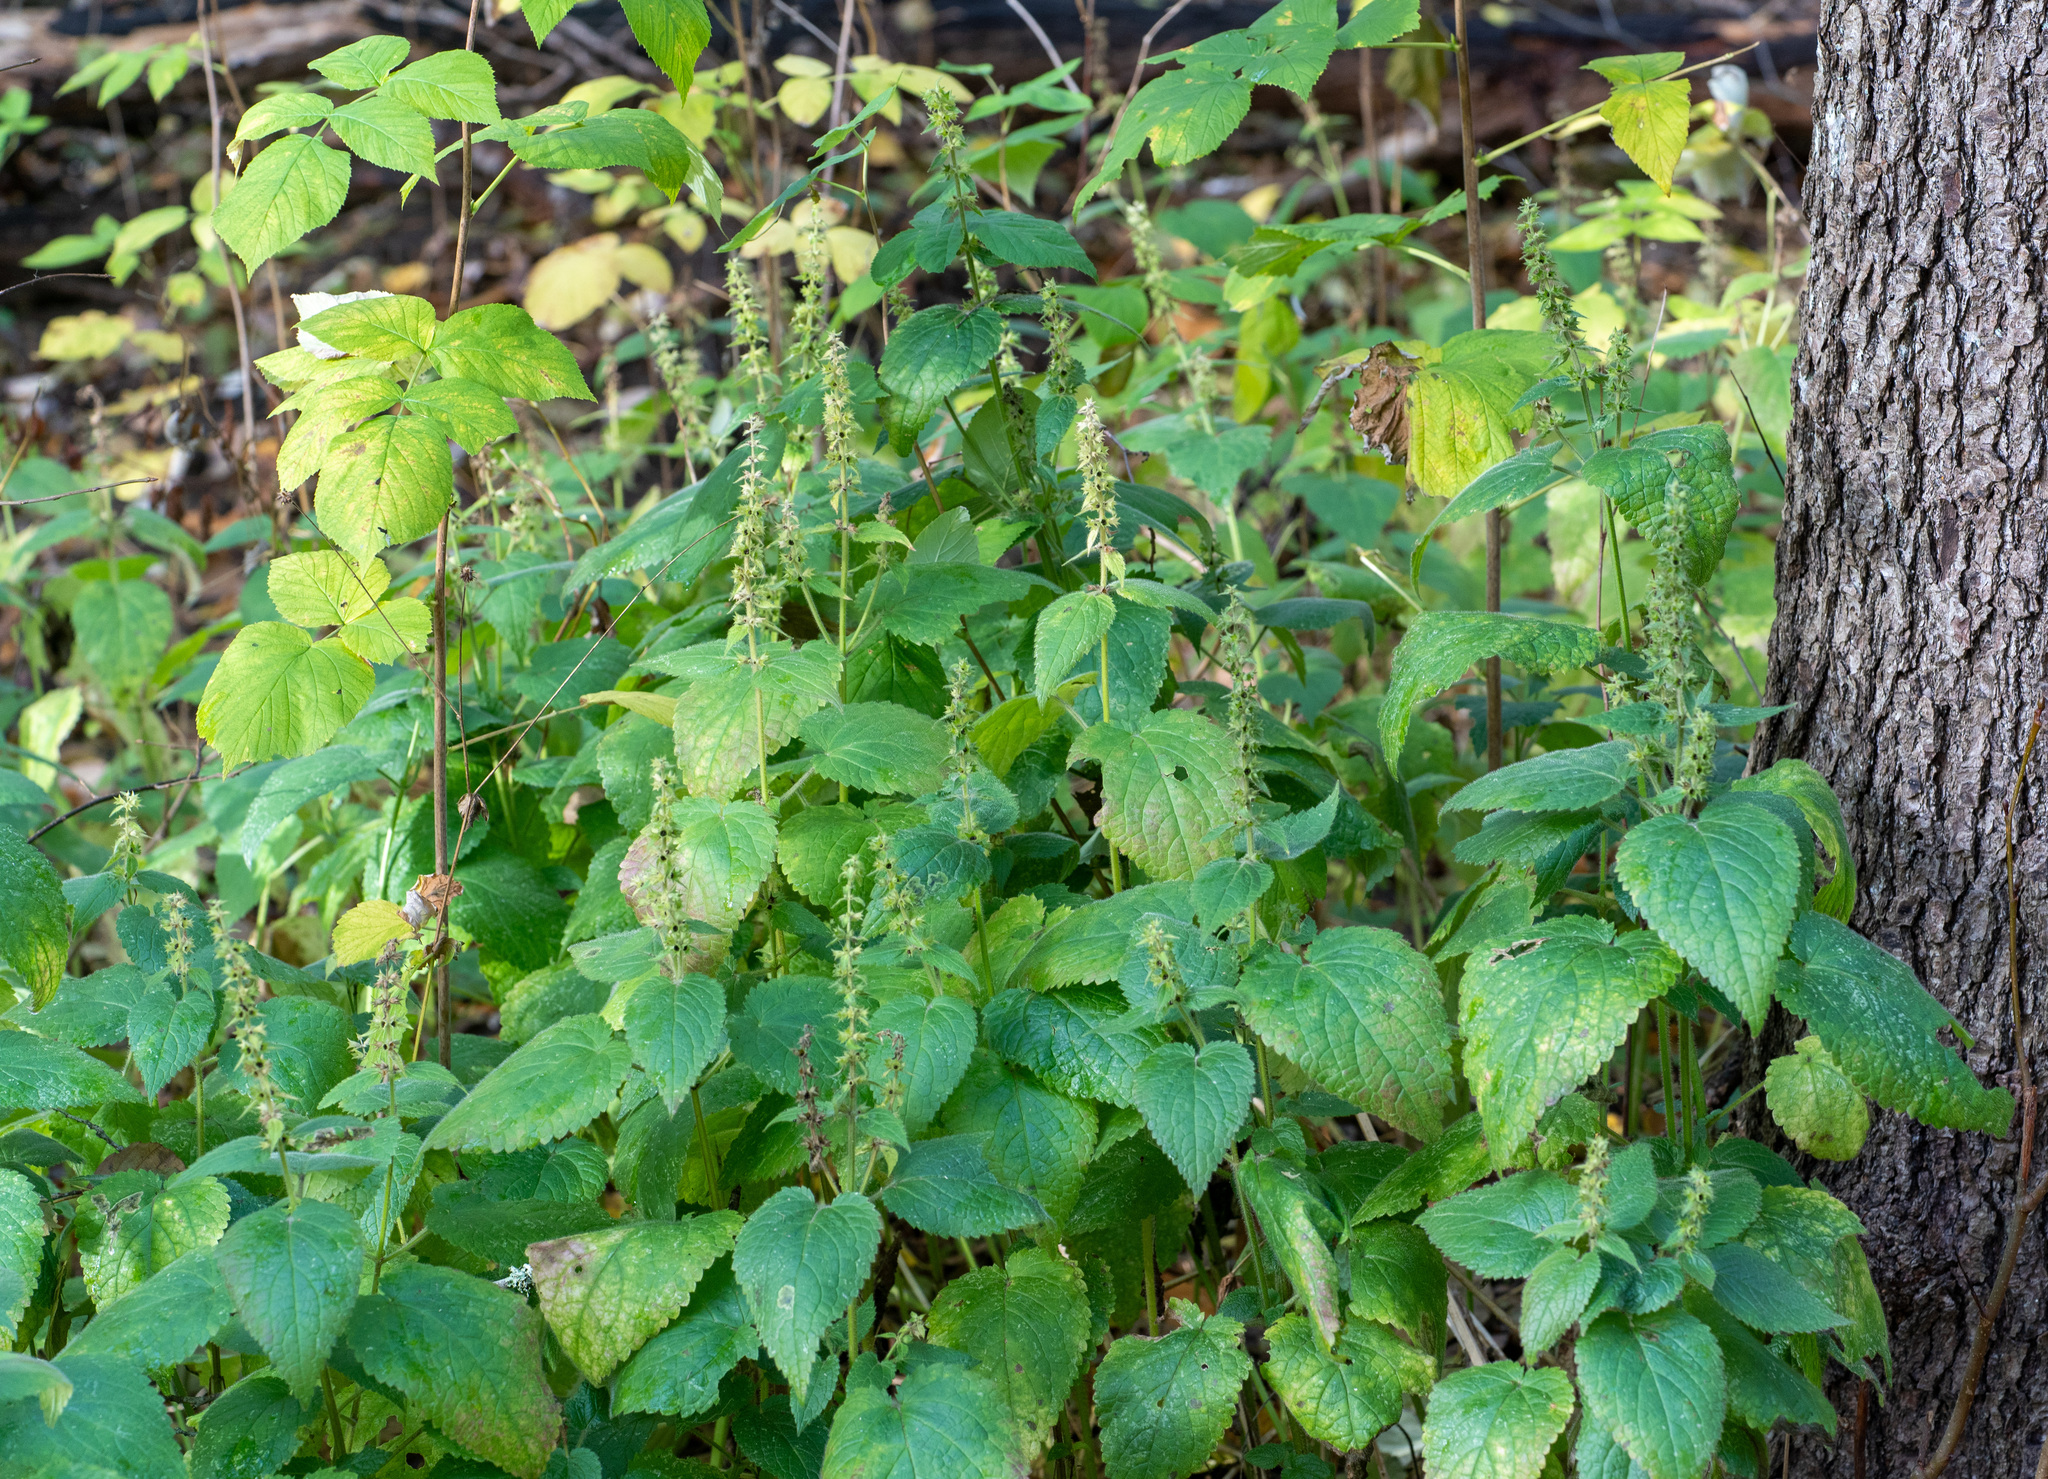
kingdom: Plantae
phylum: Tracheophyta
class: Magnoliopsida
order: Lamiales
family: Lamiaceae
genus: Stachys
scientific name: Stachys sylvatica
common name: Hedge woundwort
